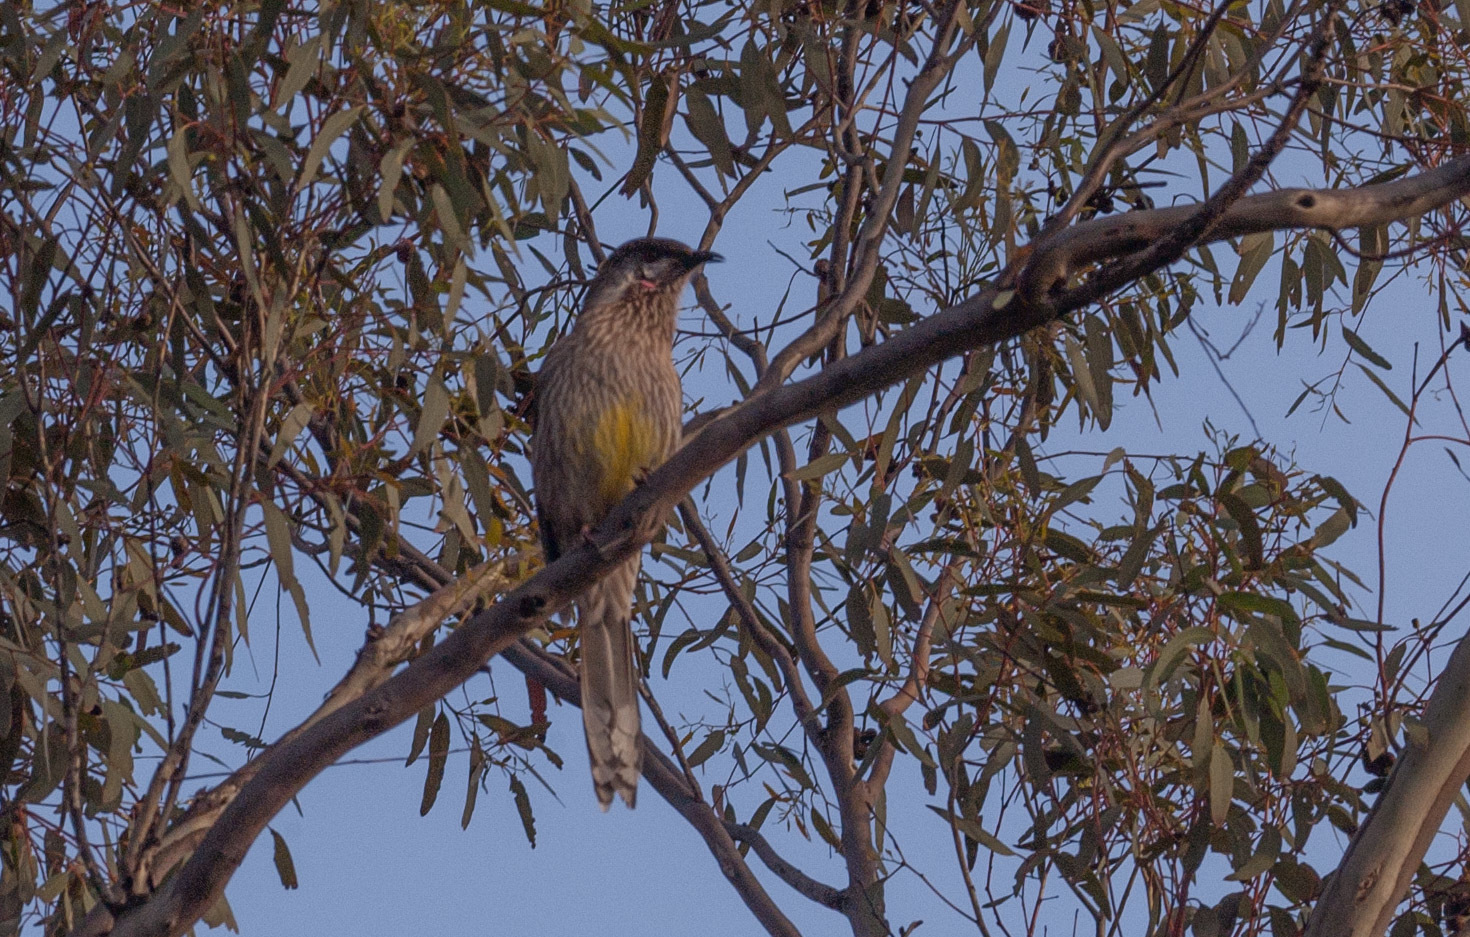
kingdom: Animalia
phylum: Chordata
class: Aves
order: Passeriformes
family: Meliphagidae
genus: Anthochaera
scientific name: Anthochaera carunculata
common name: Red wattlebird
